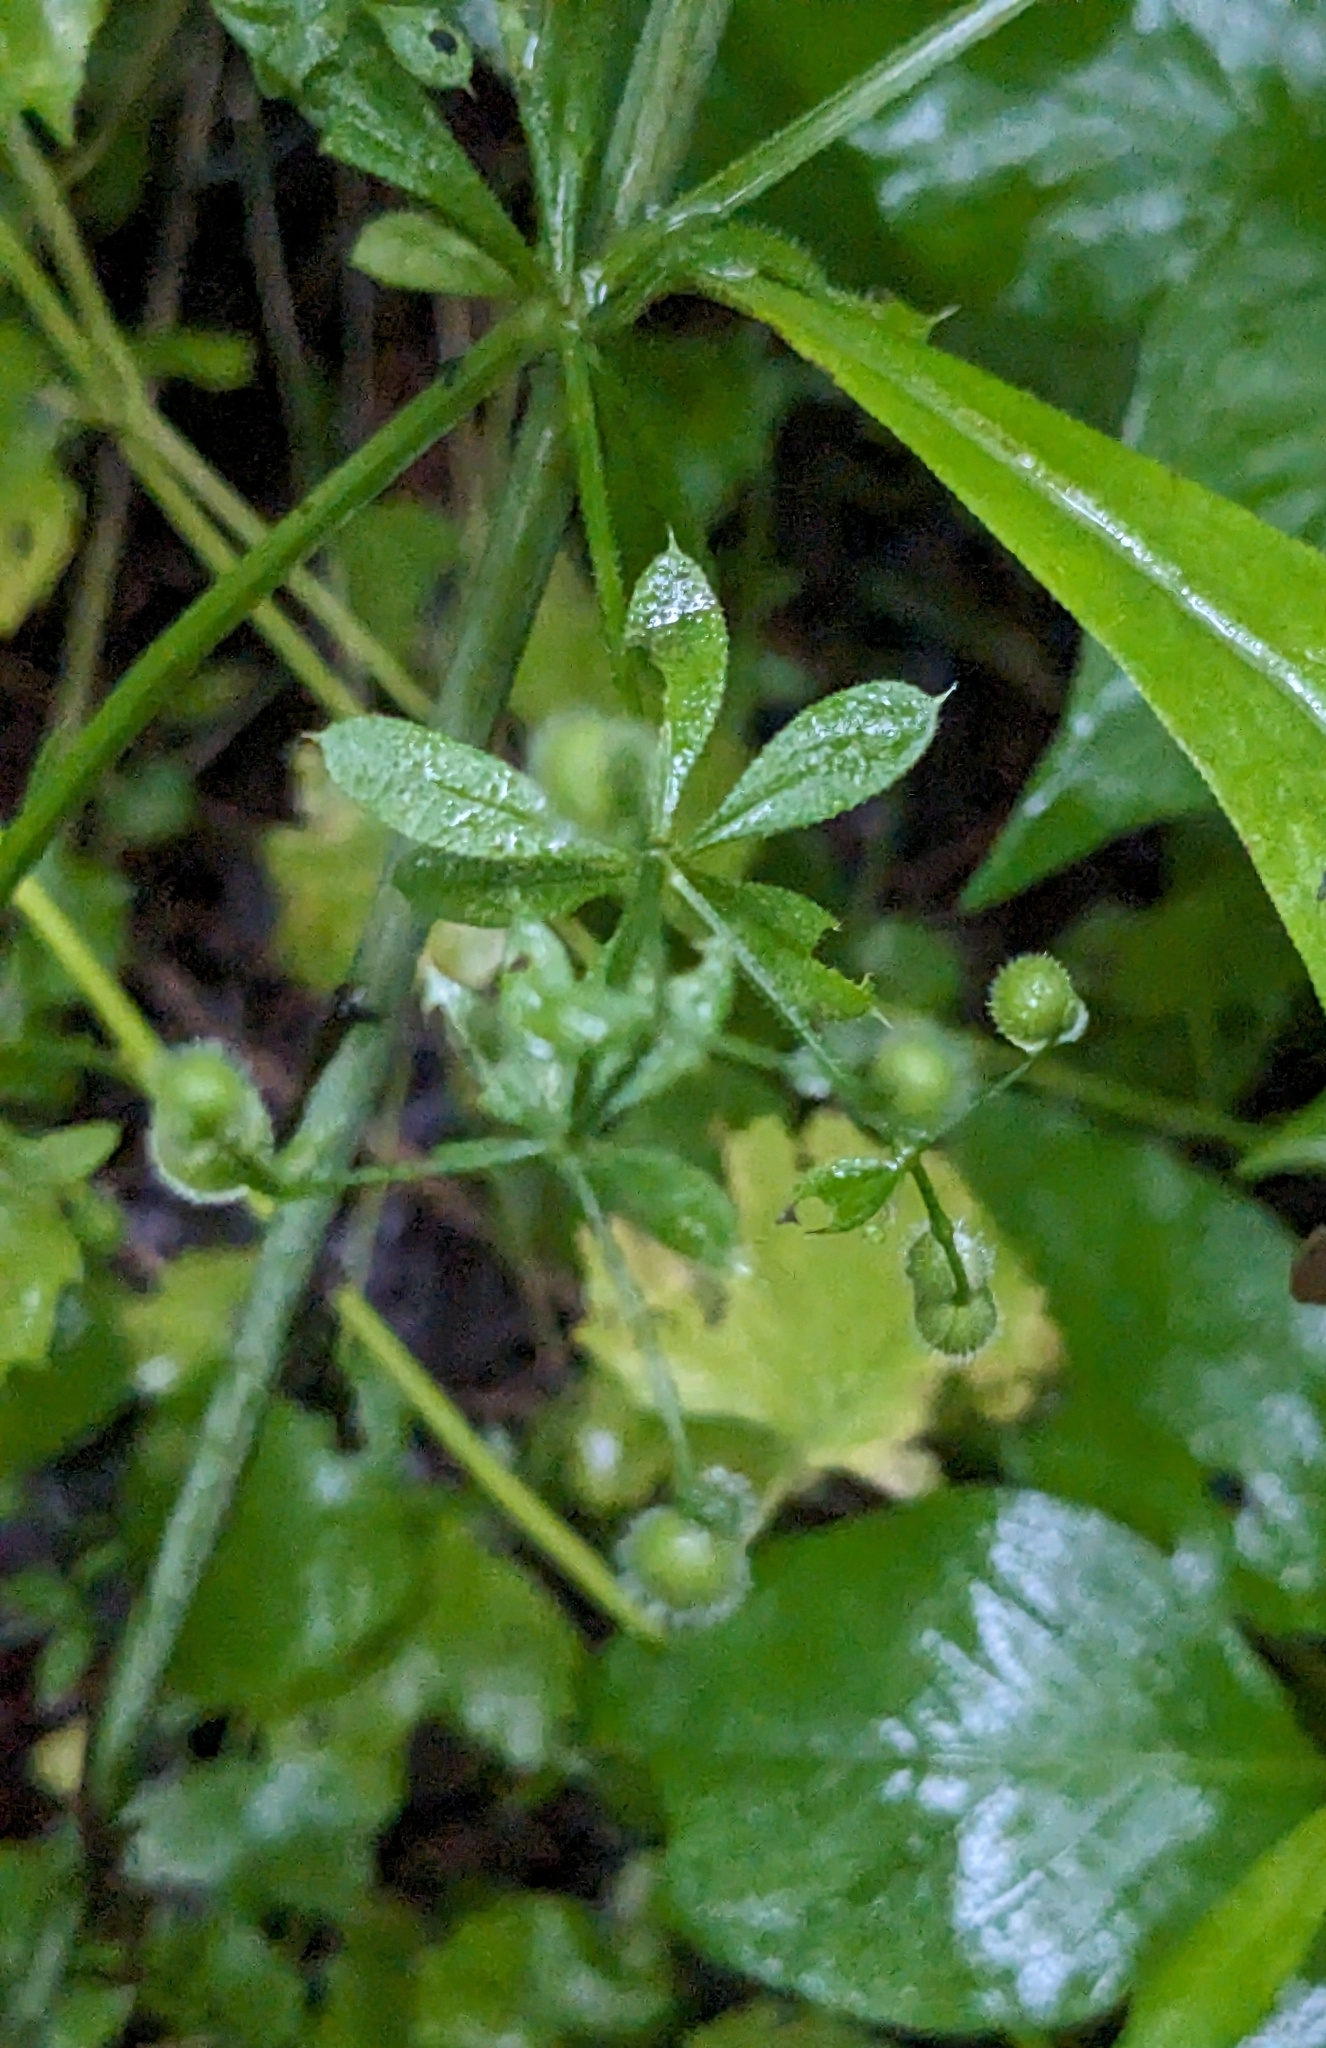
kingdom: Plantae
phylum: Tracheophyta
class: Magnoliopsida
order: Gentianales
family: Rubiaceae
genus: Galium
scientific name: Galium aparine
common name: Cleavers
